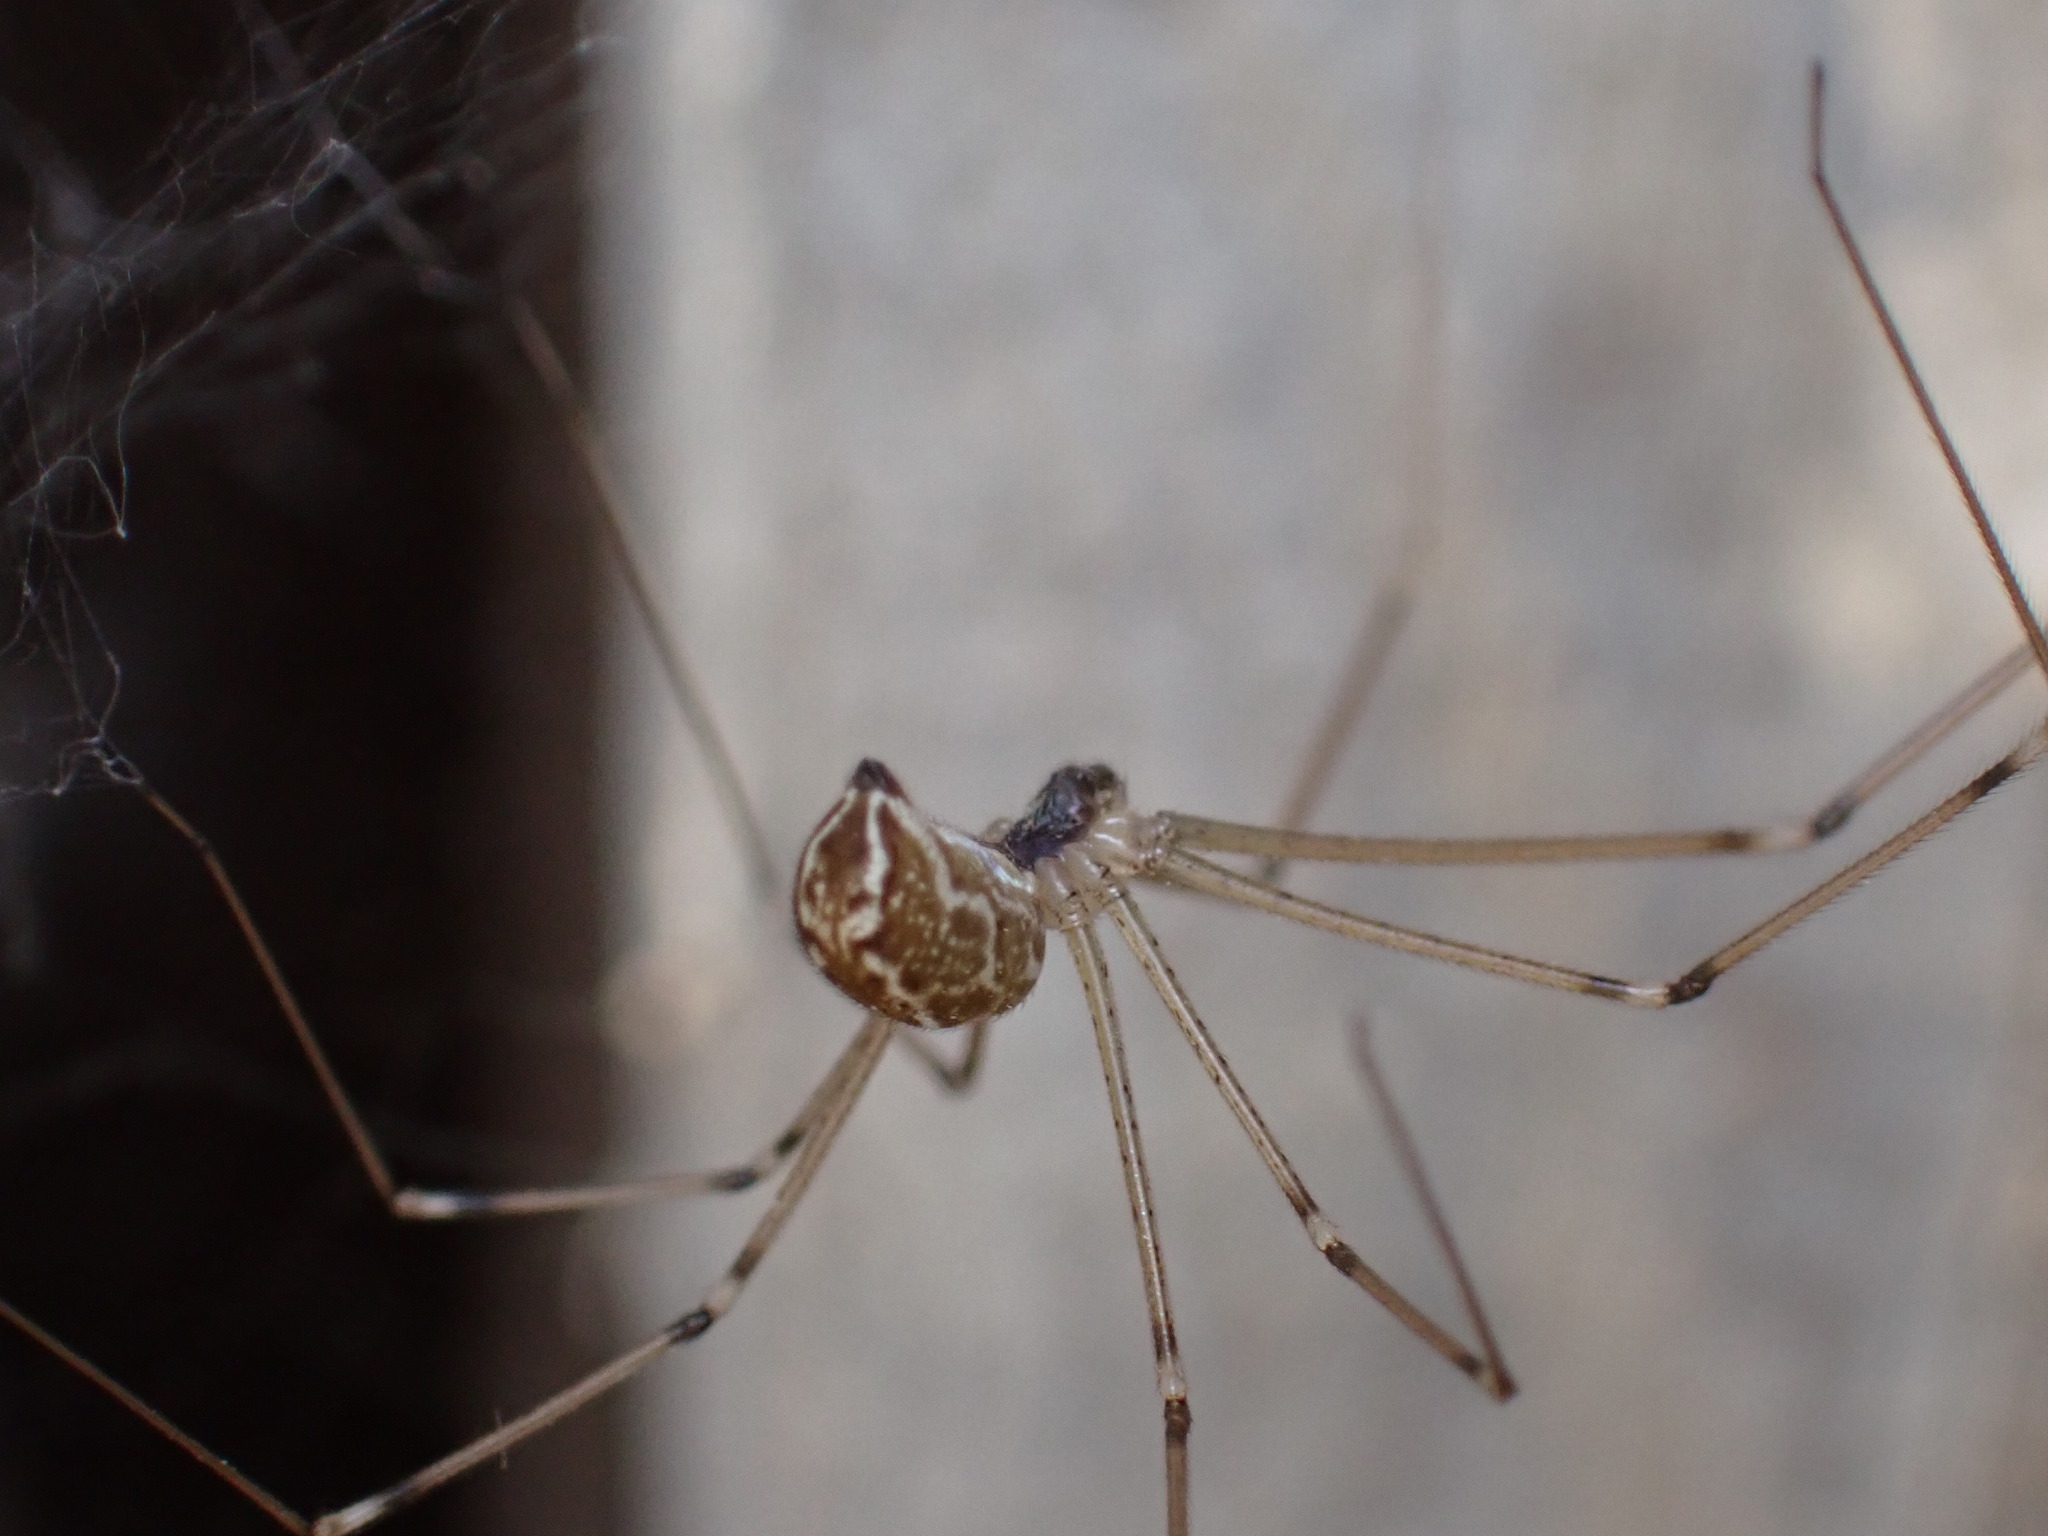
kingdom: Animalia
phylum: Arthropoda
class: Arachnida
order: Araneae
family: Pholcidae
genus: Holocnemus
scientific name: Holocnemus pluchei
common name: Marbled cellar spider
